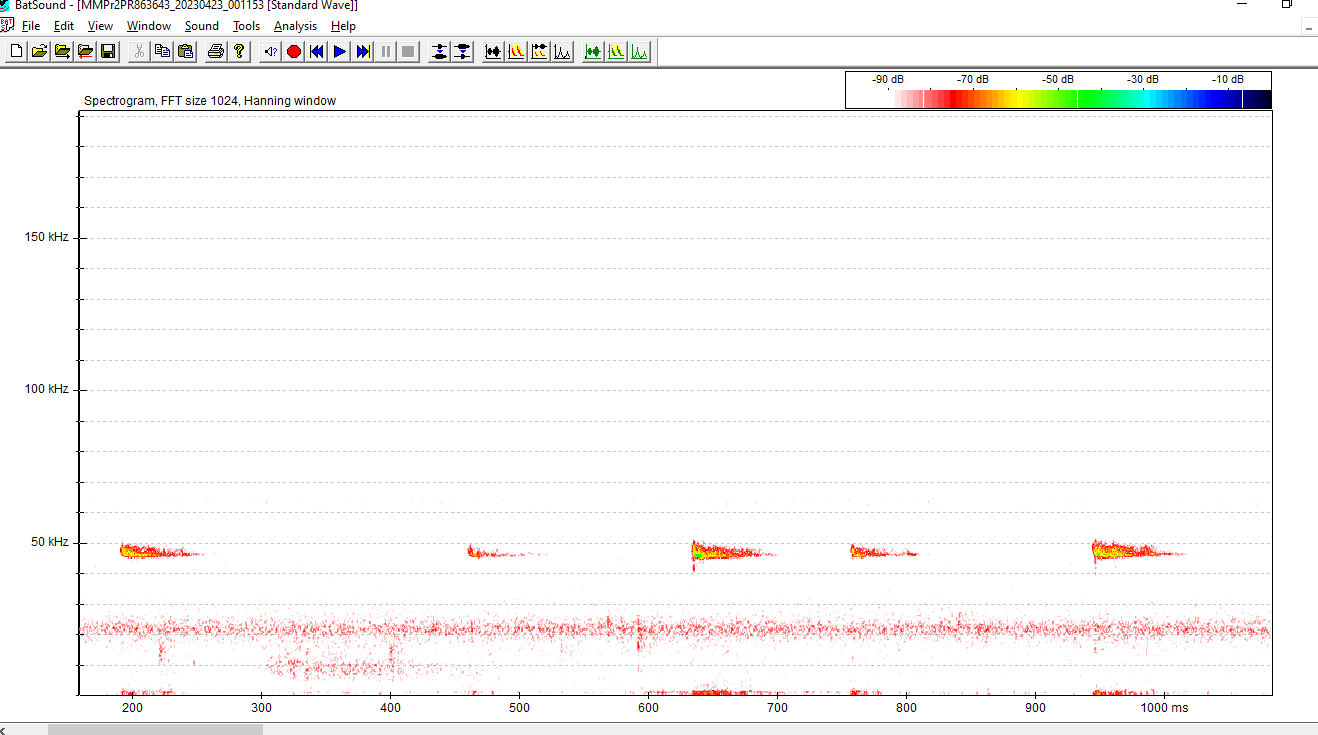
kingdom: Animalia
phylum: Chordata
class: Mammalia
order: Chiroptera
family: Vespertilionidae
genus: Pipistrellus
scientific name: Pipistrellus pipistrellus
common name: Common pipistrelle
